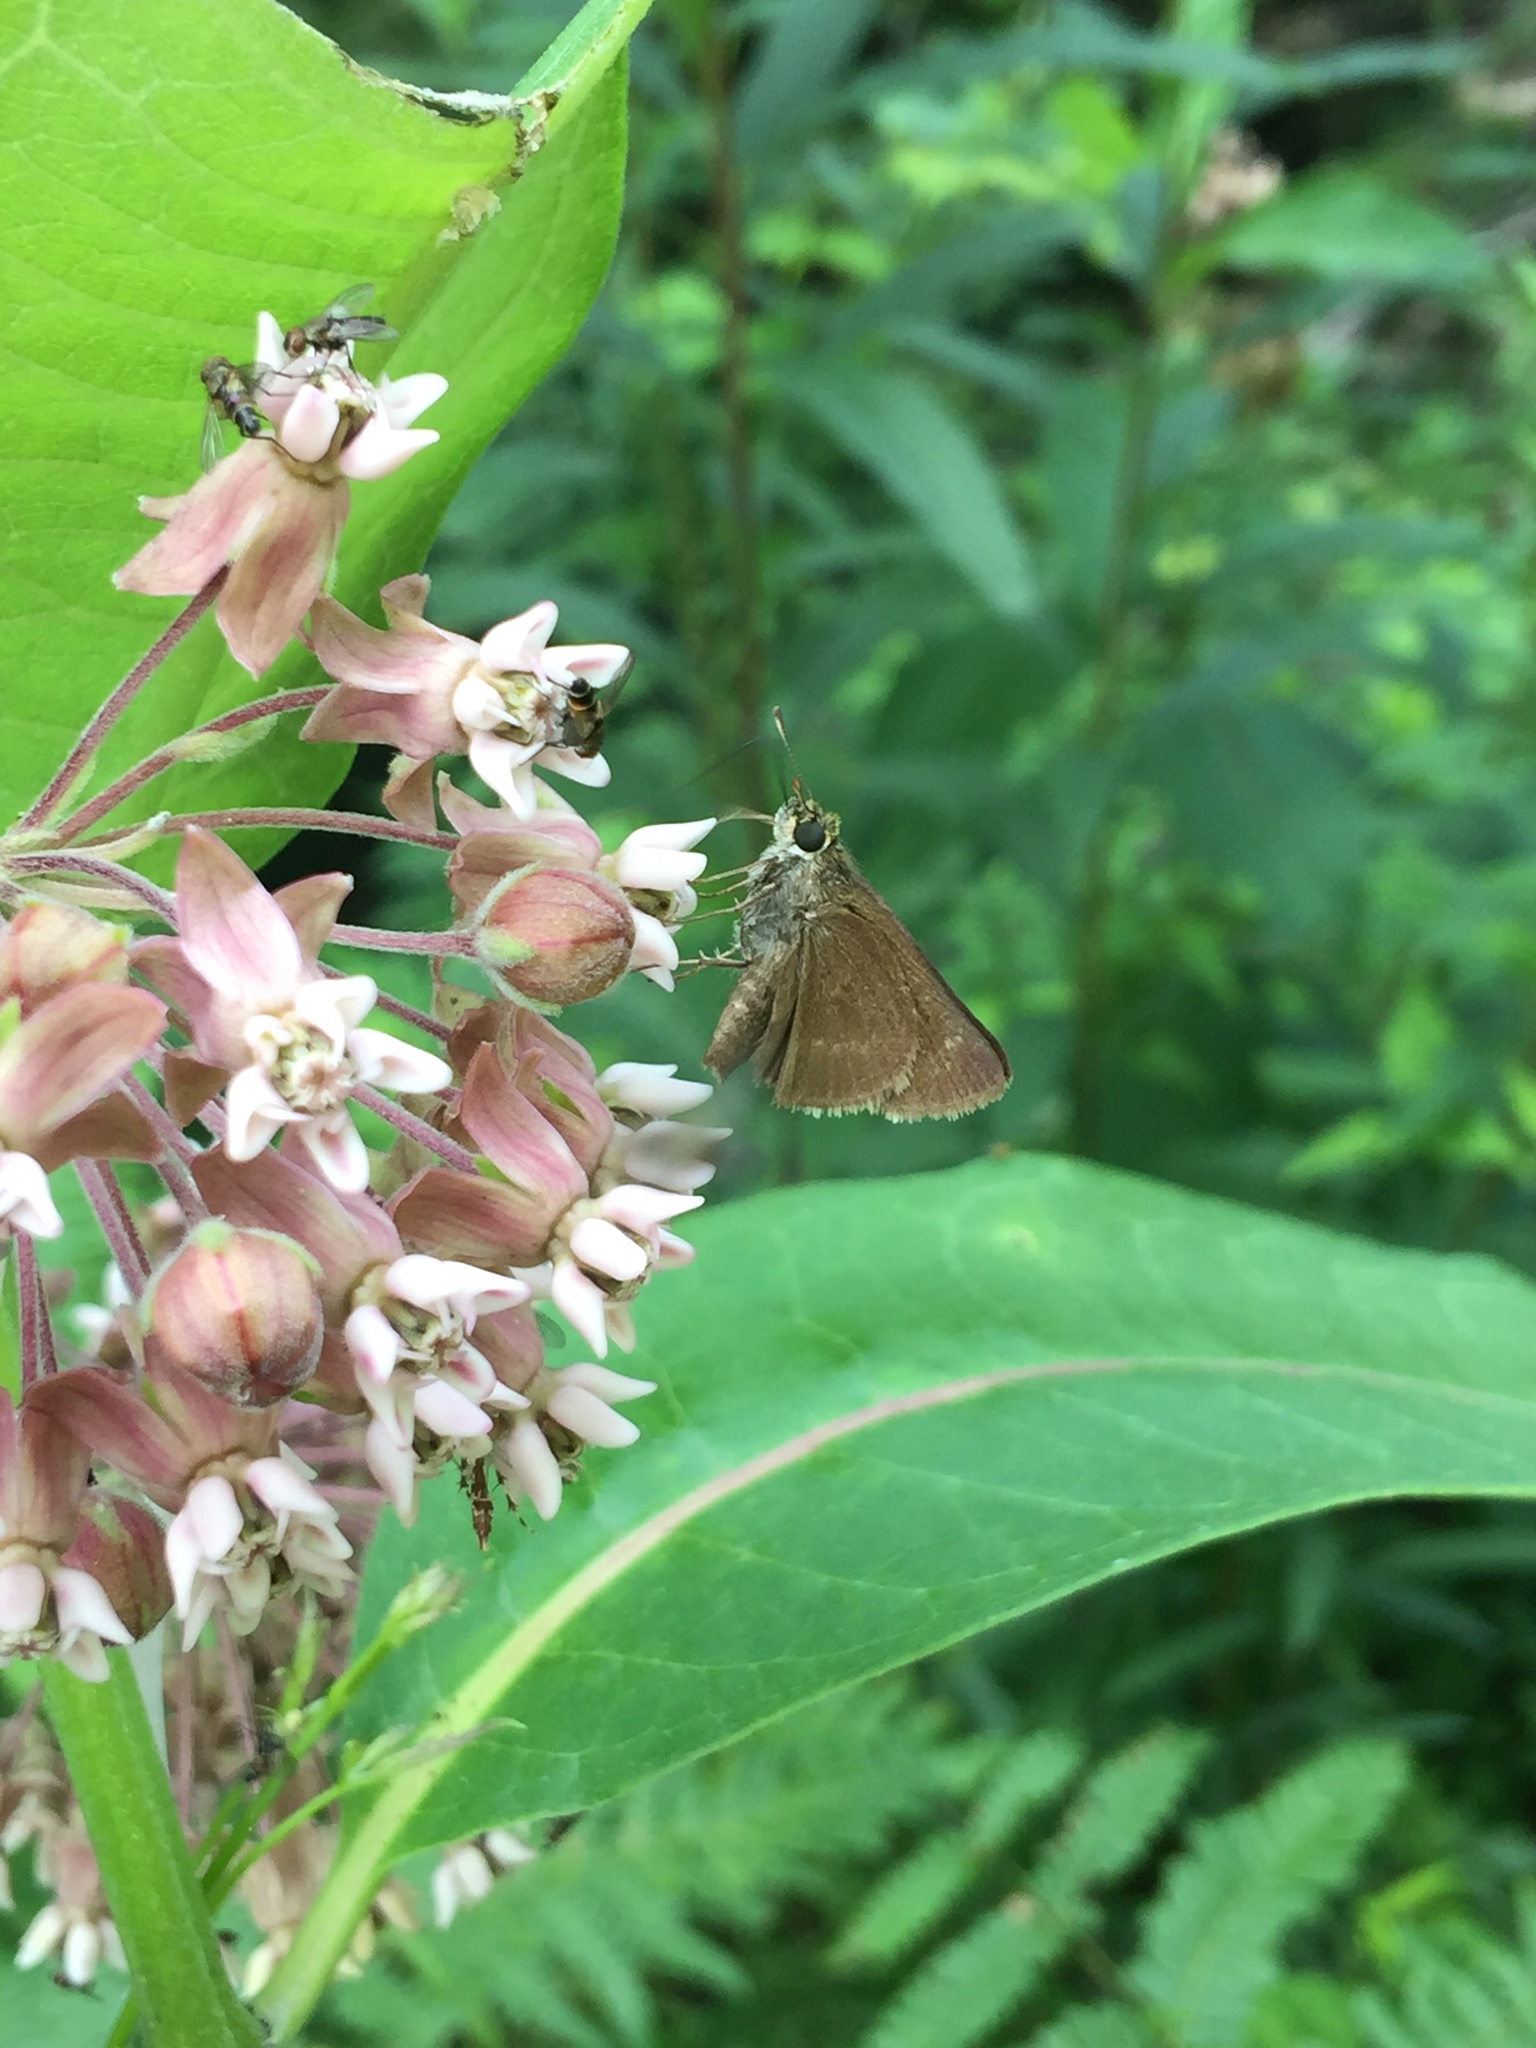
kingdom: Animalia
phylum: Arthropoda
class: Insecta
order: Lepidoptera
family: Hesperiidae
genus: Euphyes
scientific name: Euphyes vestris
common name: Dun skipper
